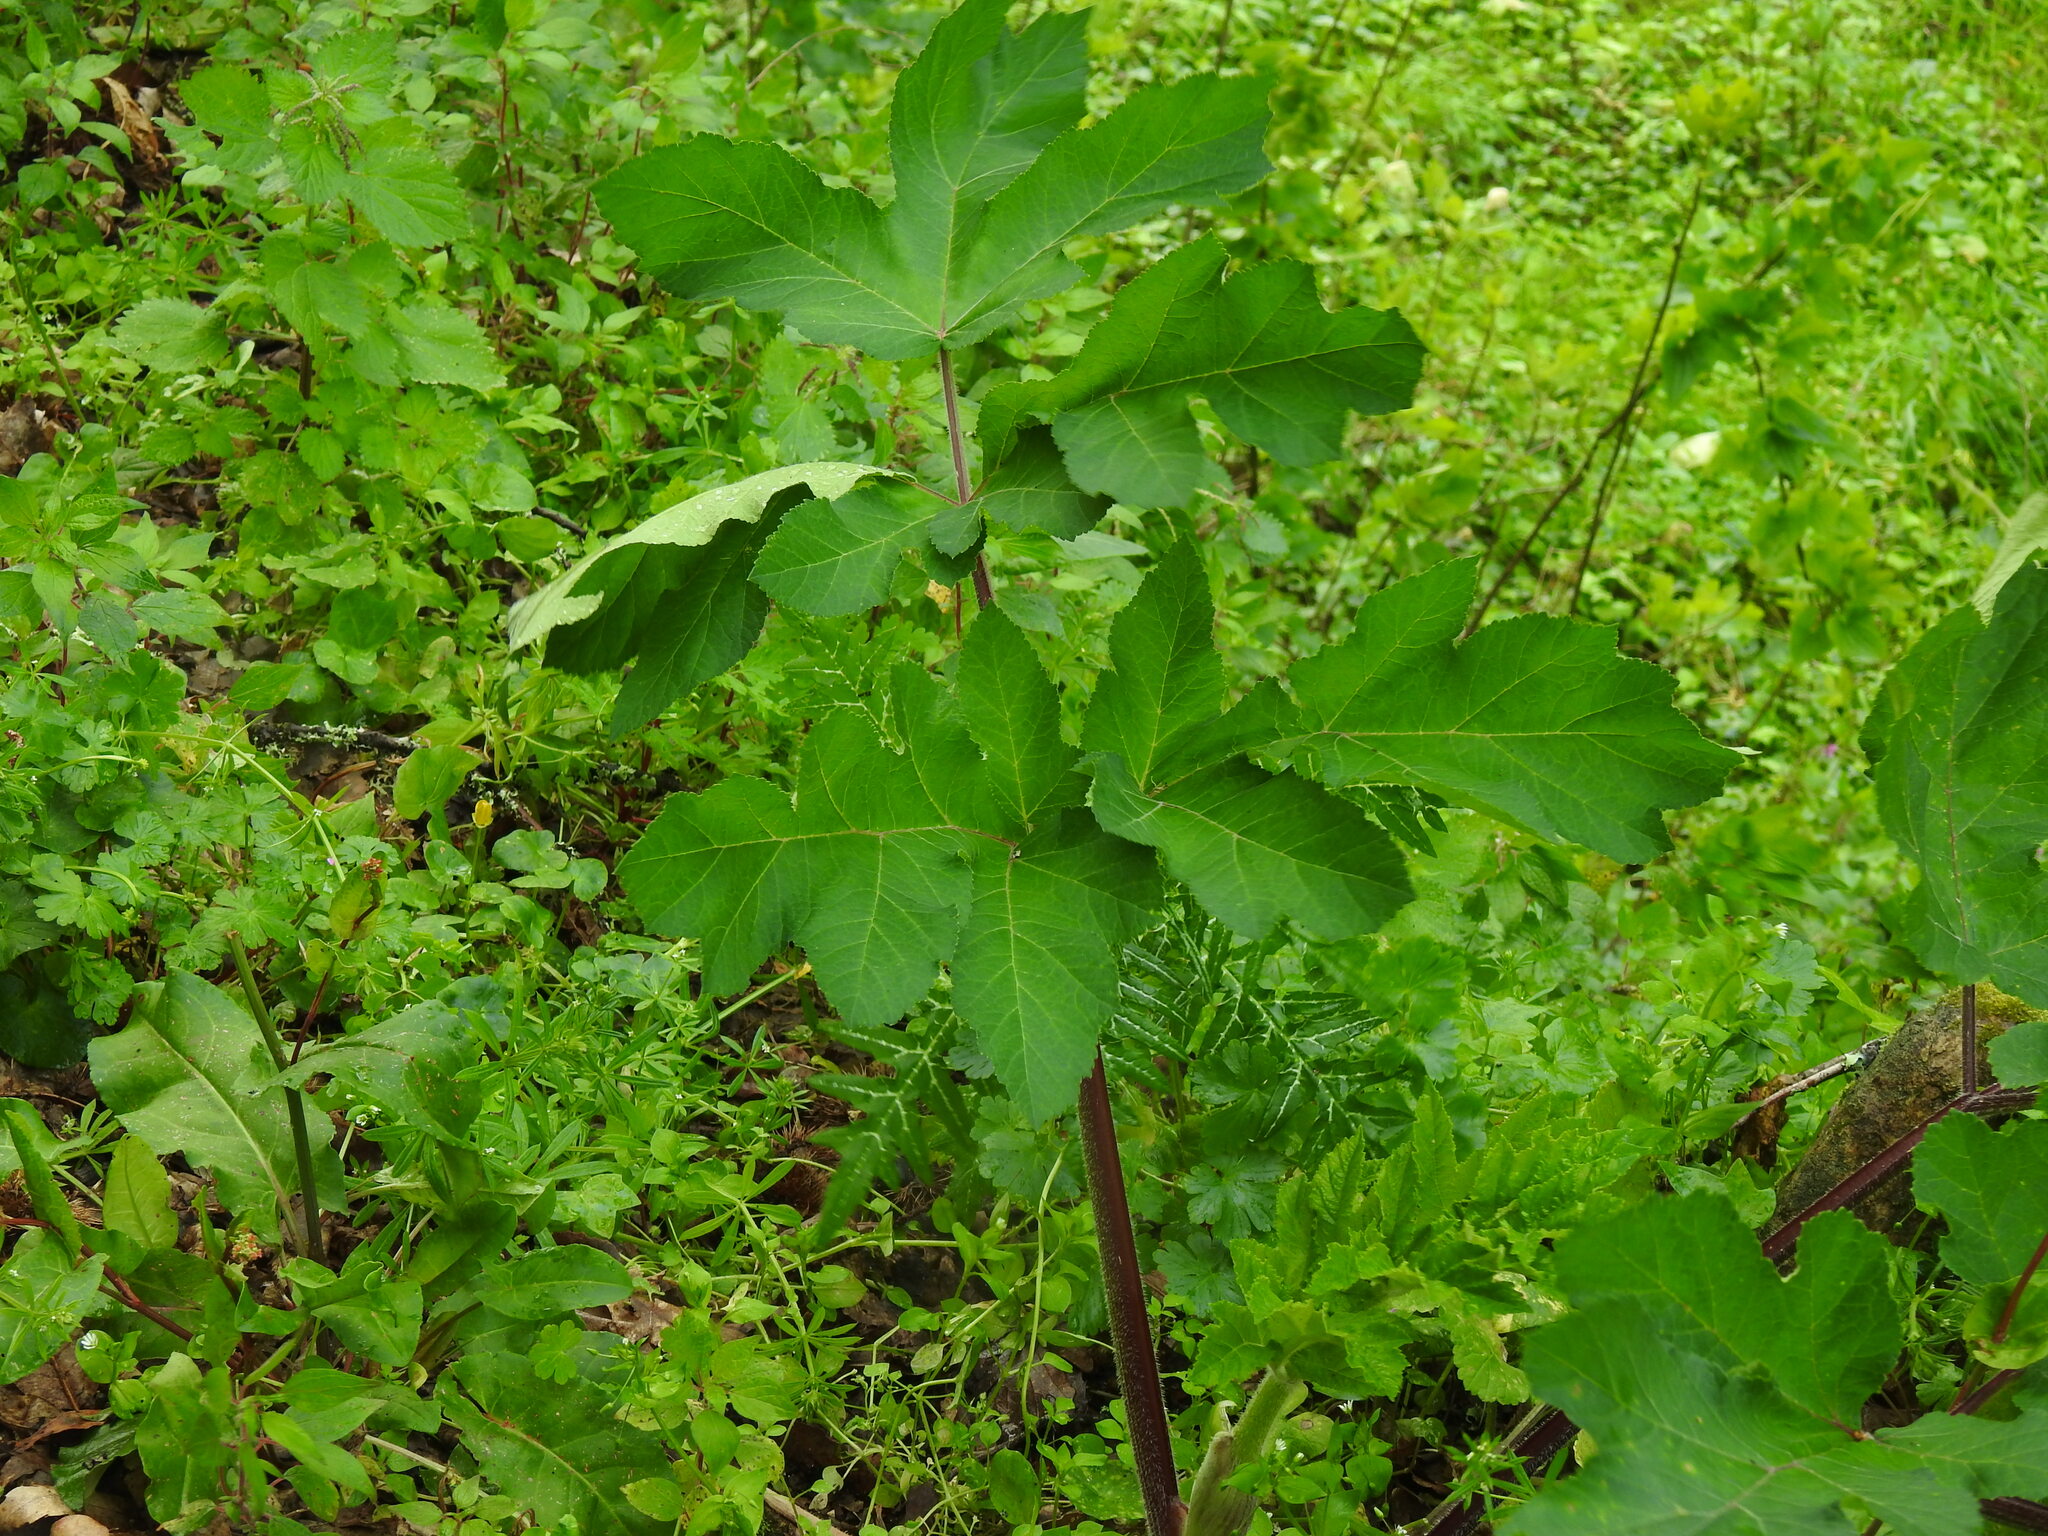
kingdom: Plantae
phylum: Tracheophyta
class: Magnoliopsida
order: Apiales
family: Apiaceae
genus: Heracleum
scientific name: Heracleum sphondylium
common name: Hogweed
